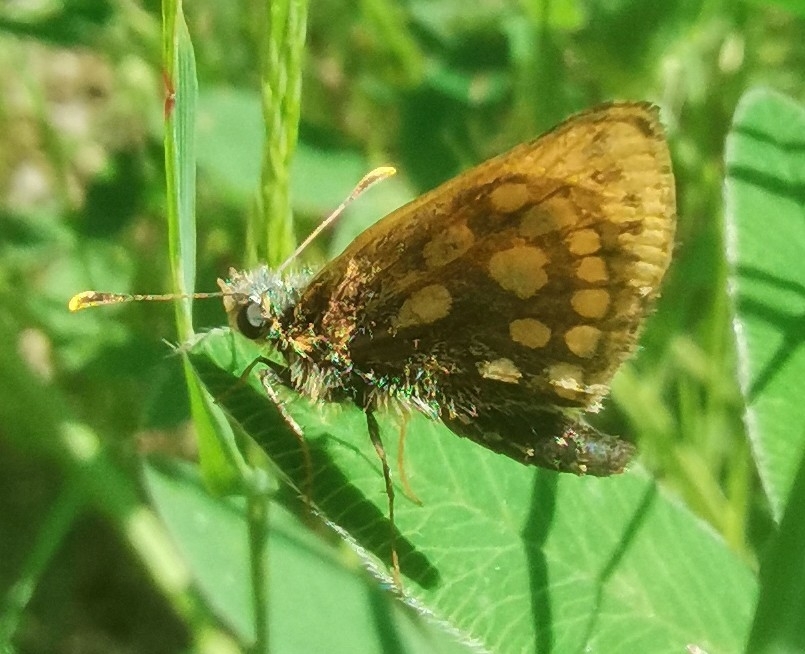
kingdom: Animalia
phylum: Arthropoda
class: Insecta
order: Lepidoptera
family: Hesperiidae
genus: Carterocephalus
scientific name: Carterocephalus silvicola
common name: Northern chequered skipper
